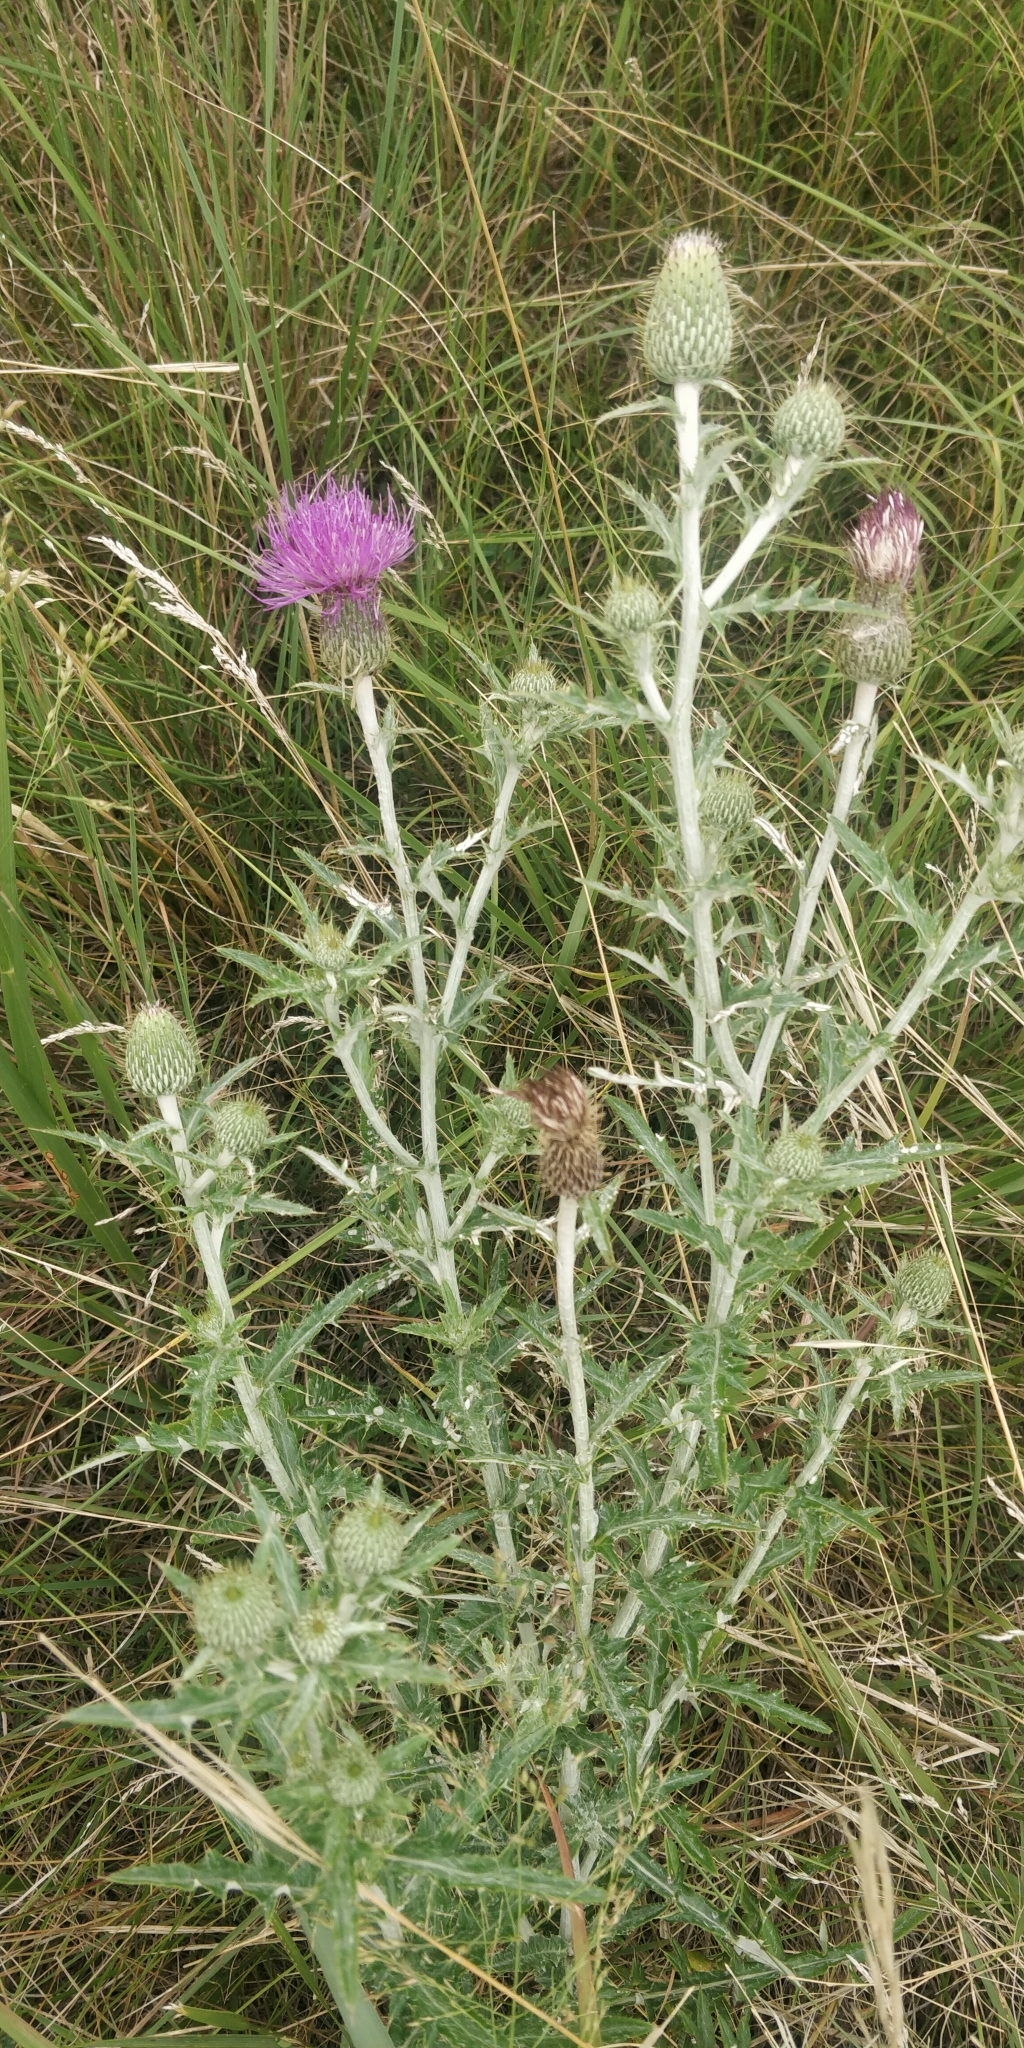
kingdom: Plantae
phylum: Tracheophyta
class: Magnoliopsida
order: Asterales
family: Asteraceae
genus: Cirsium
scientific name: Cirsium flodmanii
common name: Flodman's thistle
